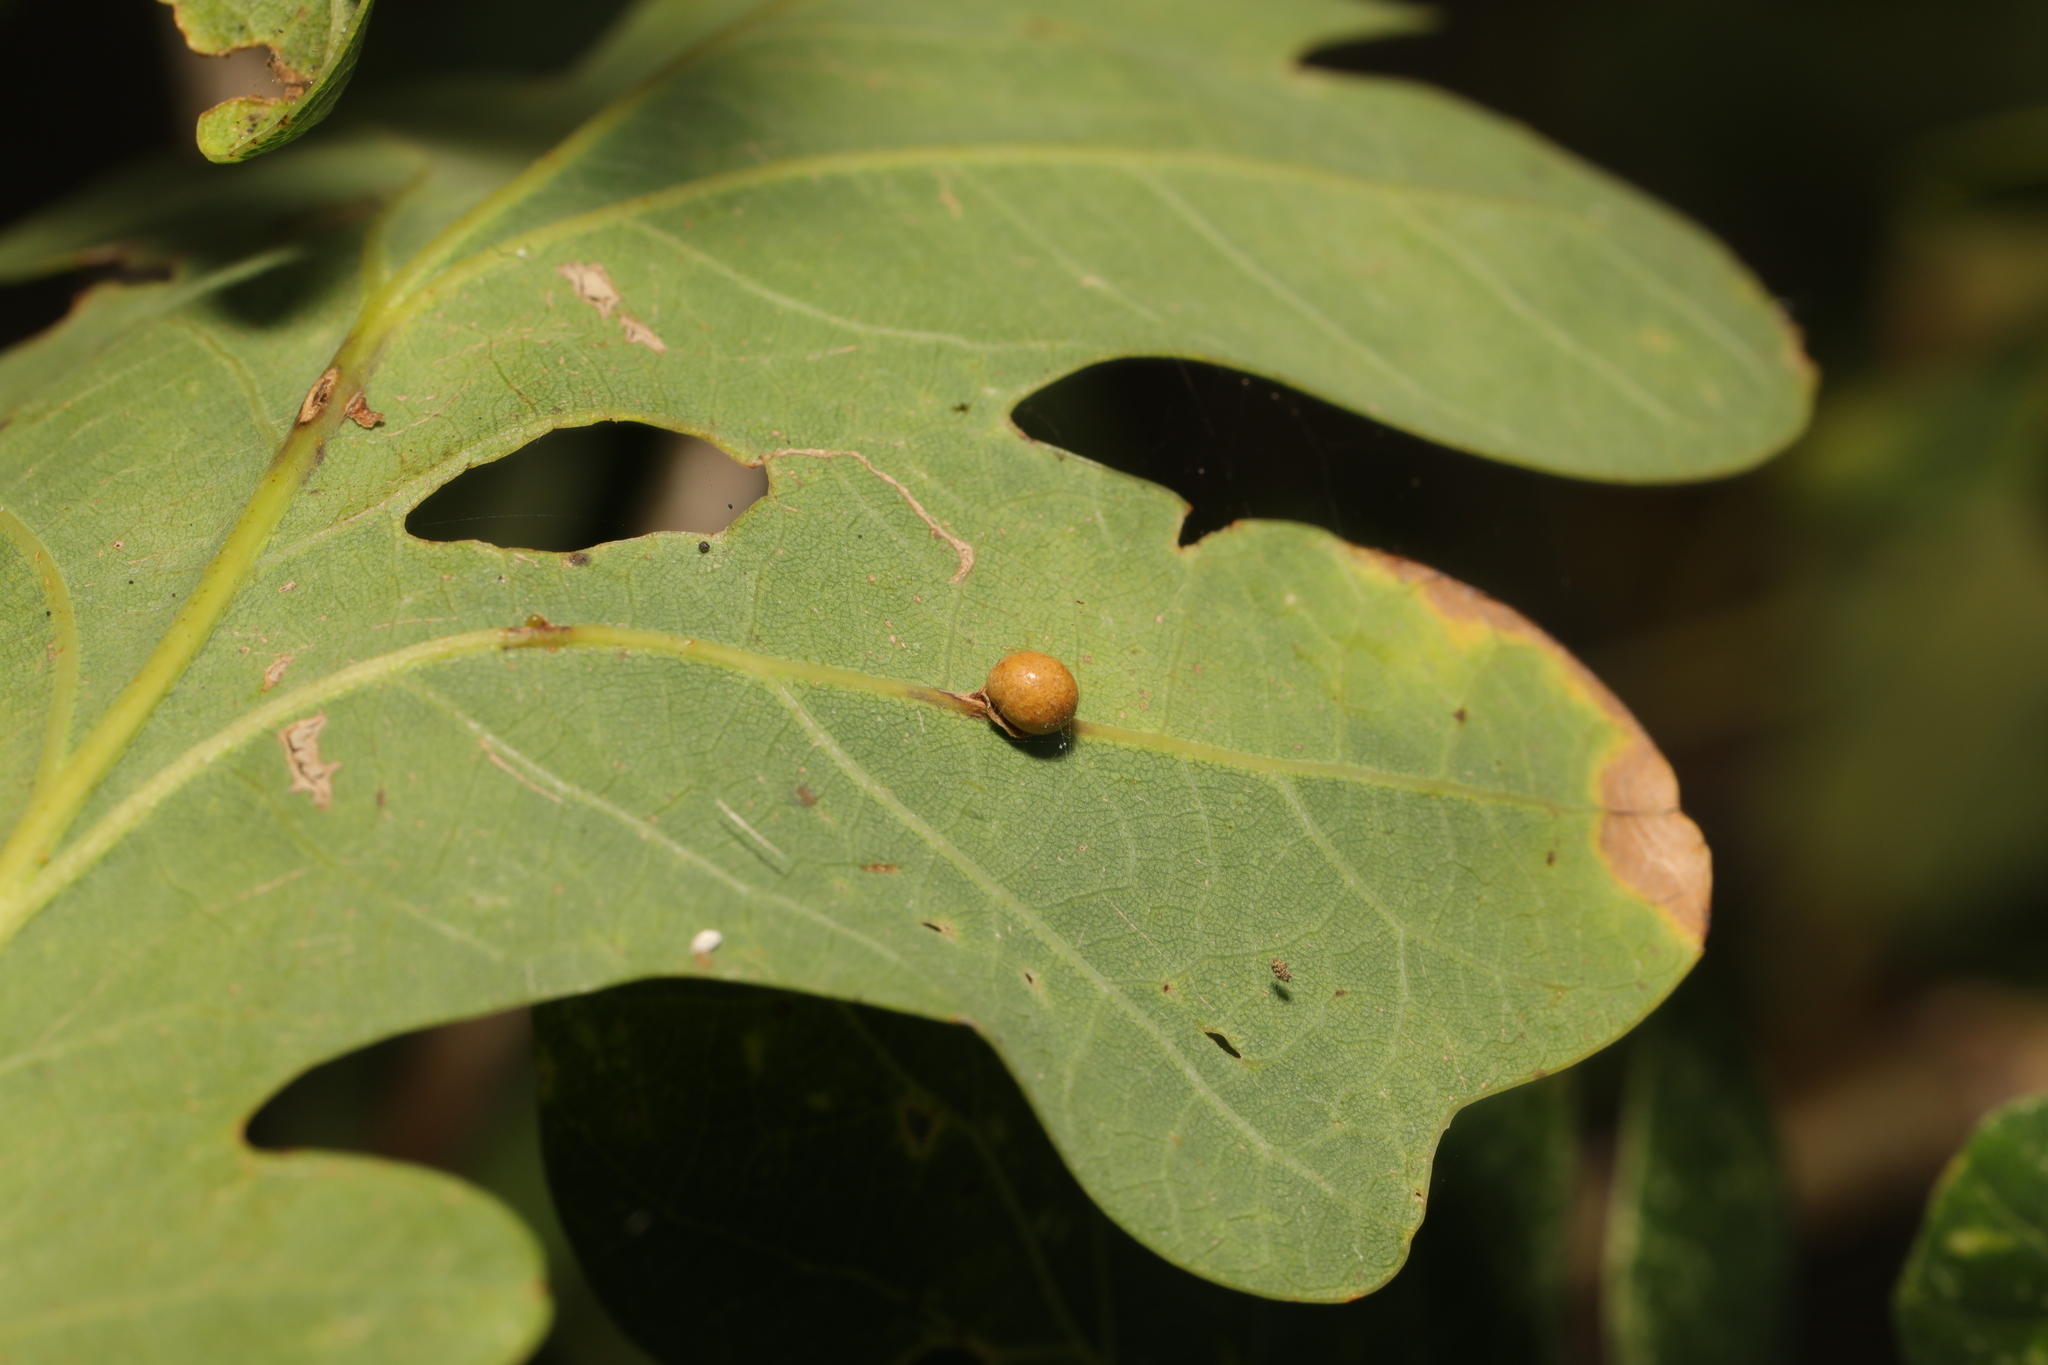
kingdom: Animalia
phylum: Arthropoda
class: Insecta
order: Hymenoptera
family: Cynipidae
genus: Neuroterus
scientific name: Neuroterus anthracinus
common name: Oyster gall
